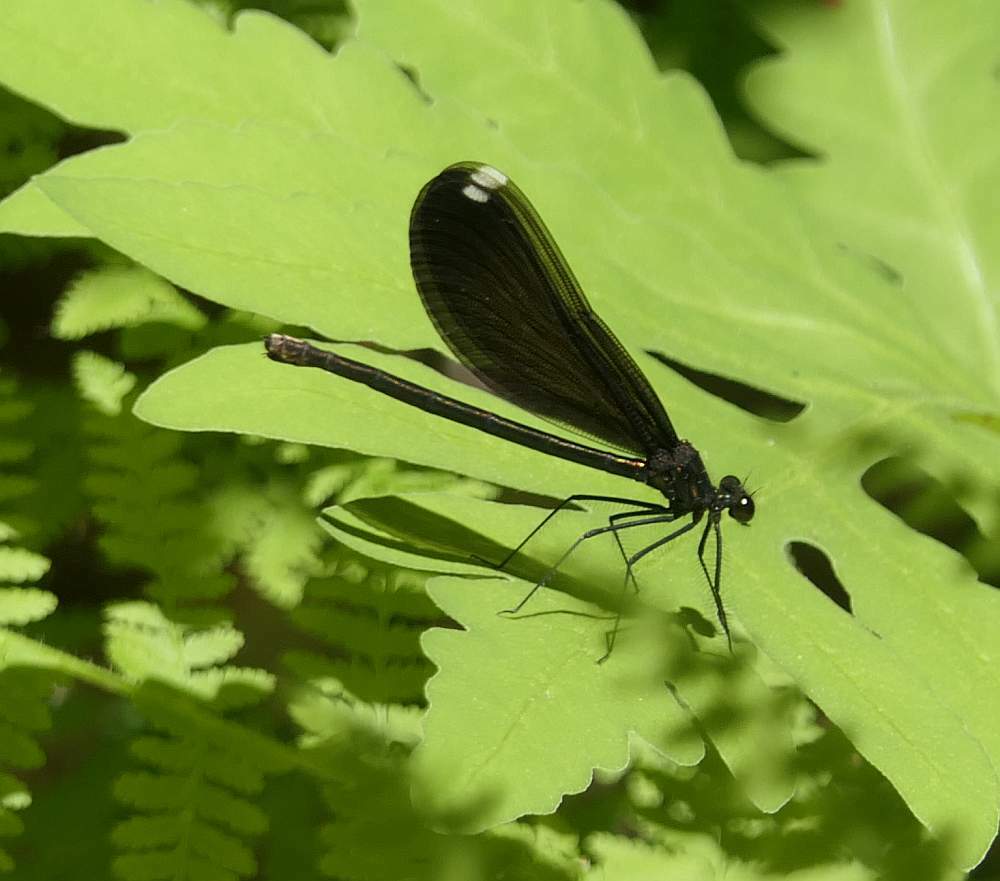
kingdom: Animalia
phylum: Arthropoda
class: Insecta
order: Odonata
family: Calopterygidae
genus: Calopteryx
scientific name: Calopteryx maculata
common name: Ebony jewelwing
